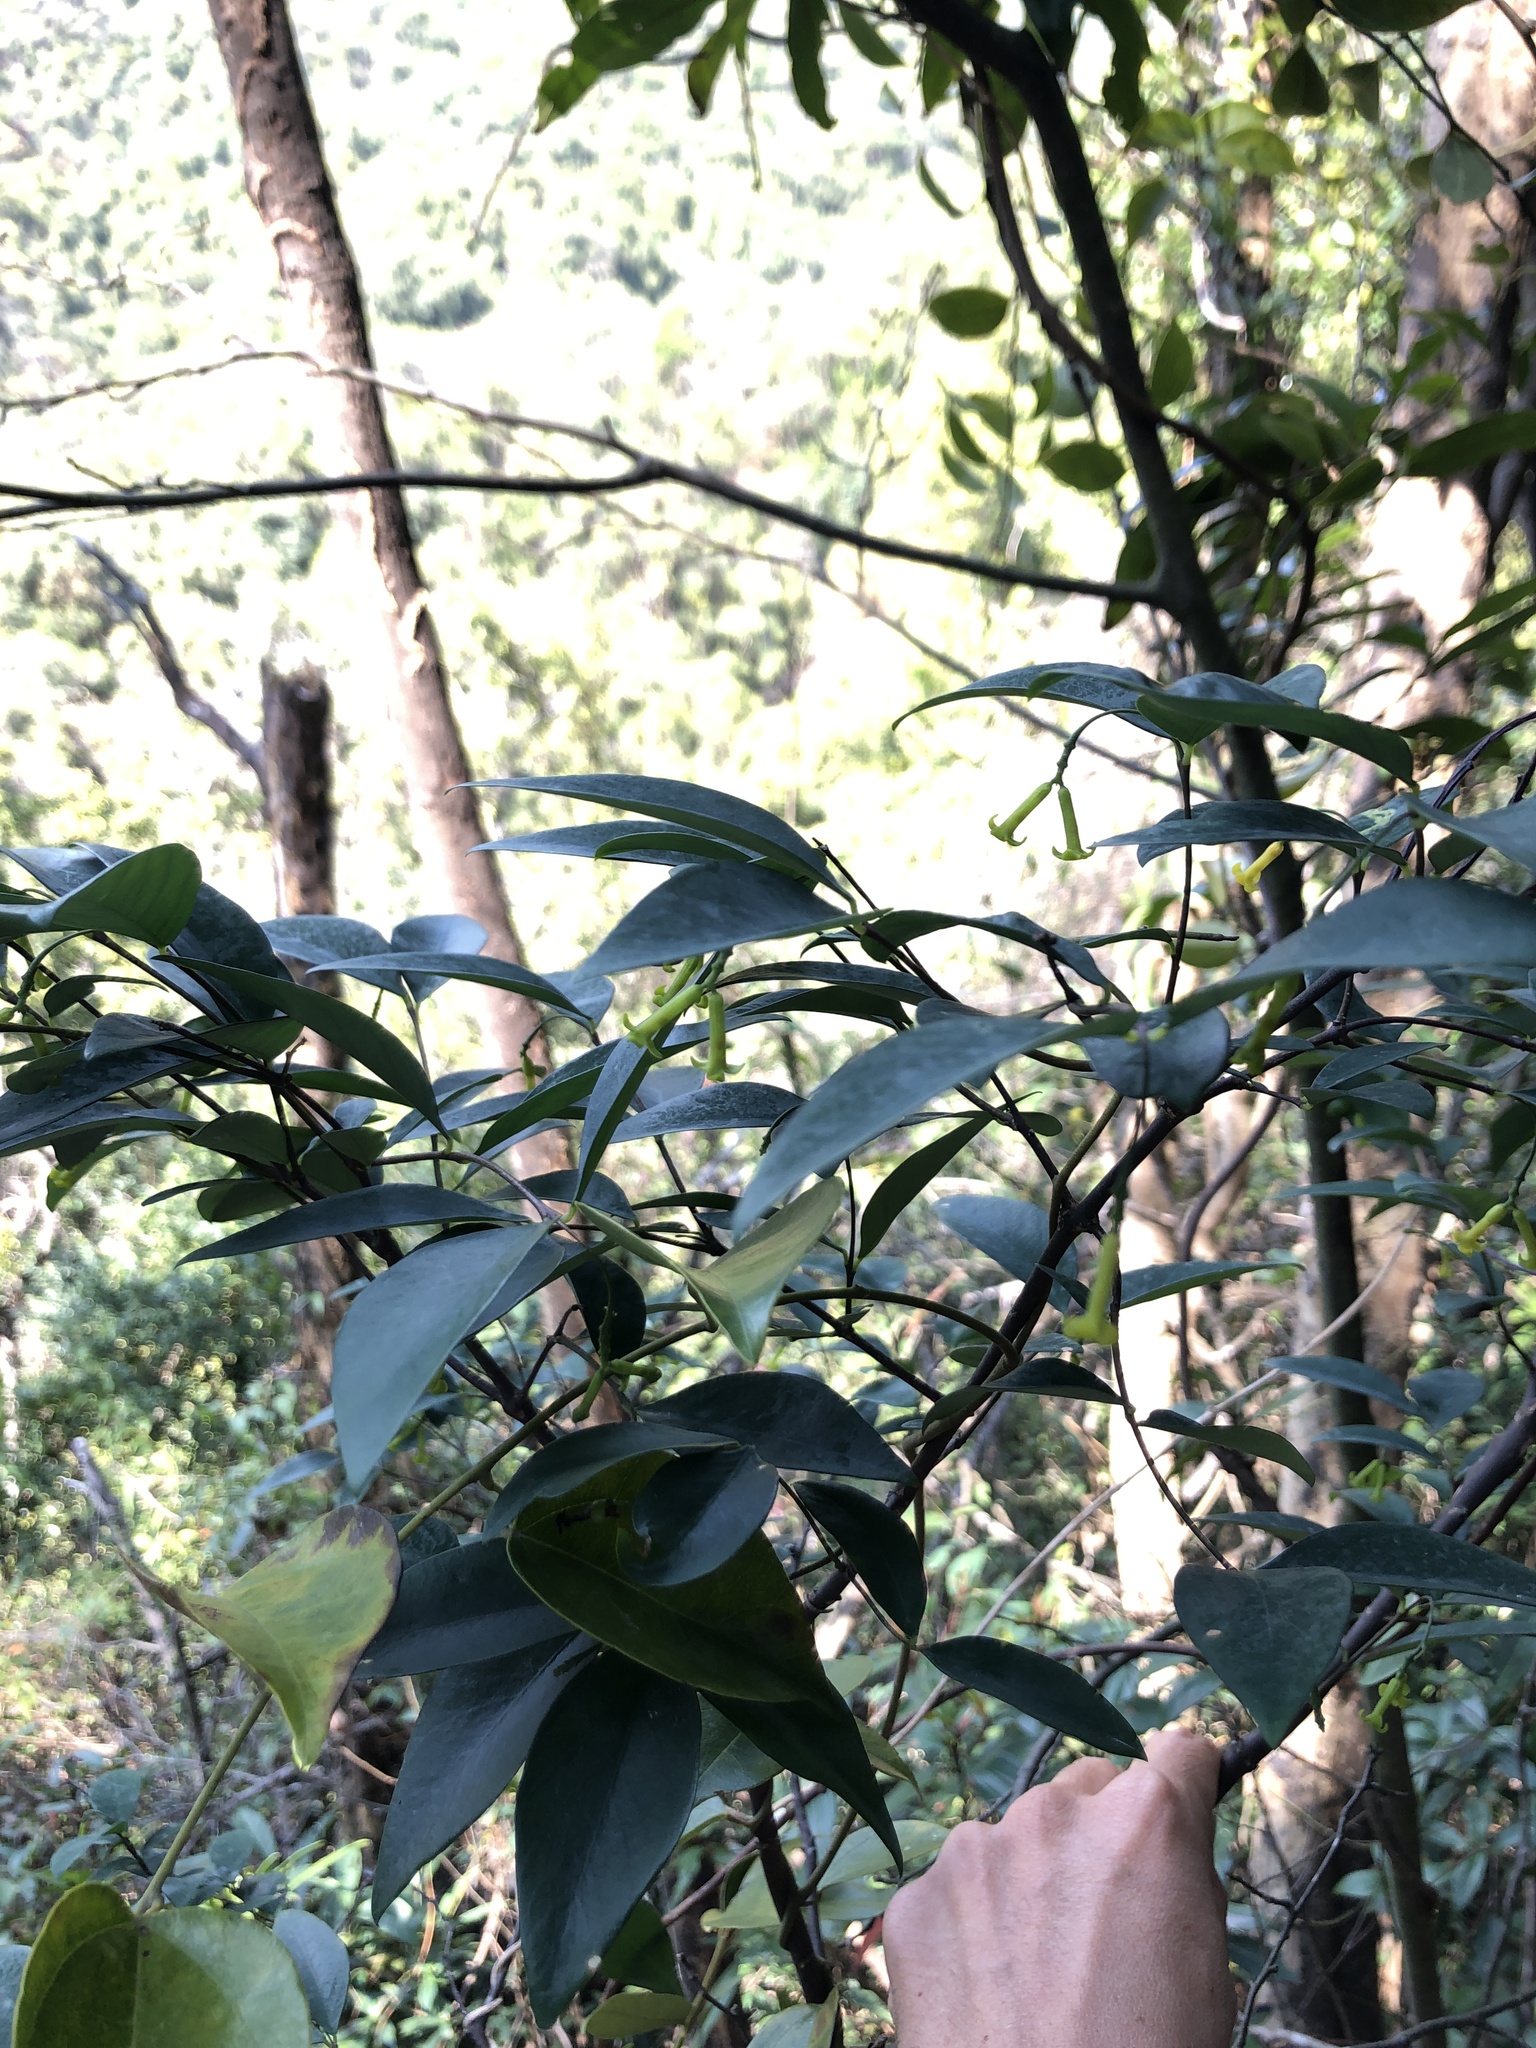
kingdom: Plantae
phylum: Tracheophyta
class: Magnoliopsida
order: Malvales
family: Thymelaeaceae
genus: Wikstroemia
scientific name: Wikstroemia nutans
